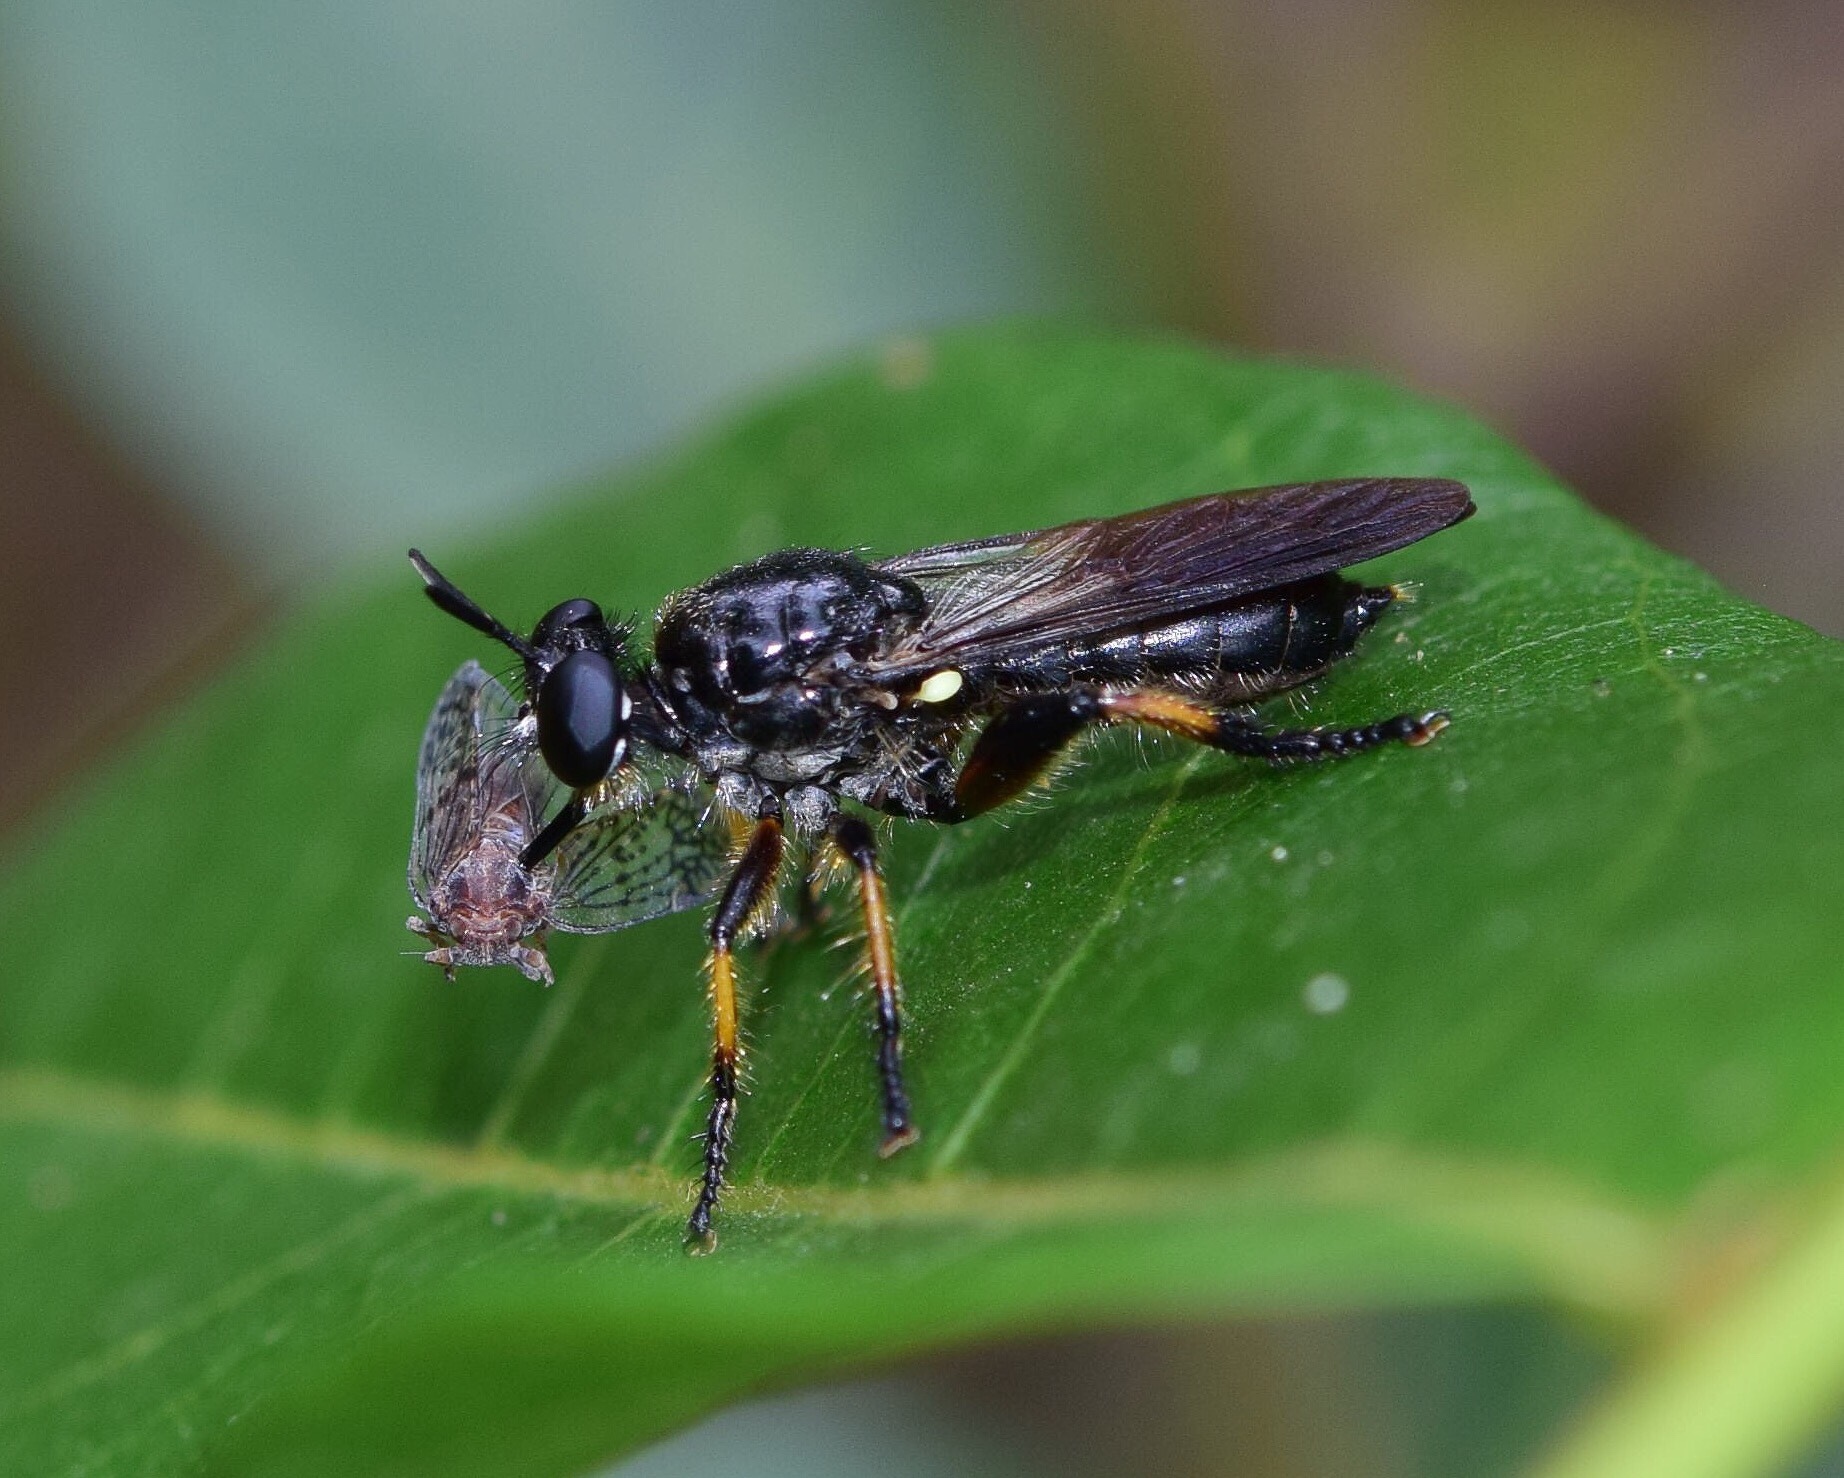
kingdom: Animalia
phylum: Arthropoda
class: Insecta
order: Diptera
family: Asilidae
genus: Laphria
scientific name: Laphria flavipes
